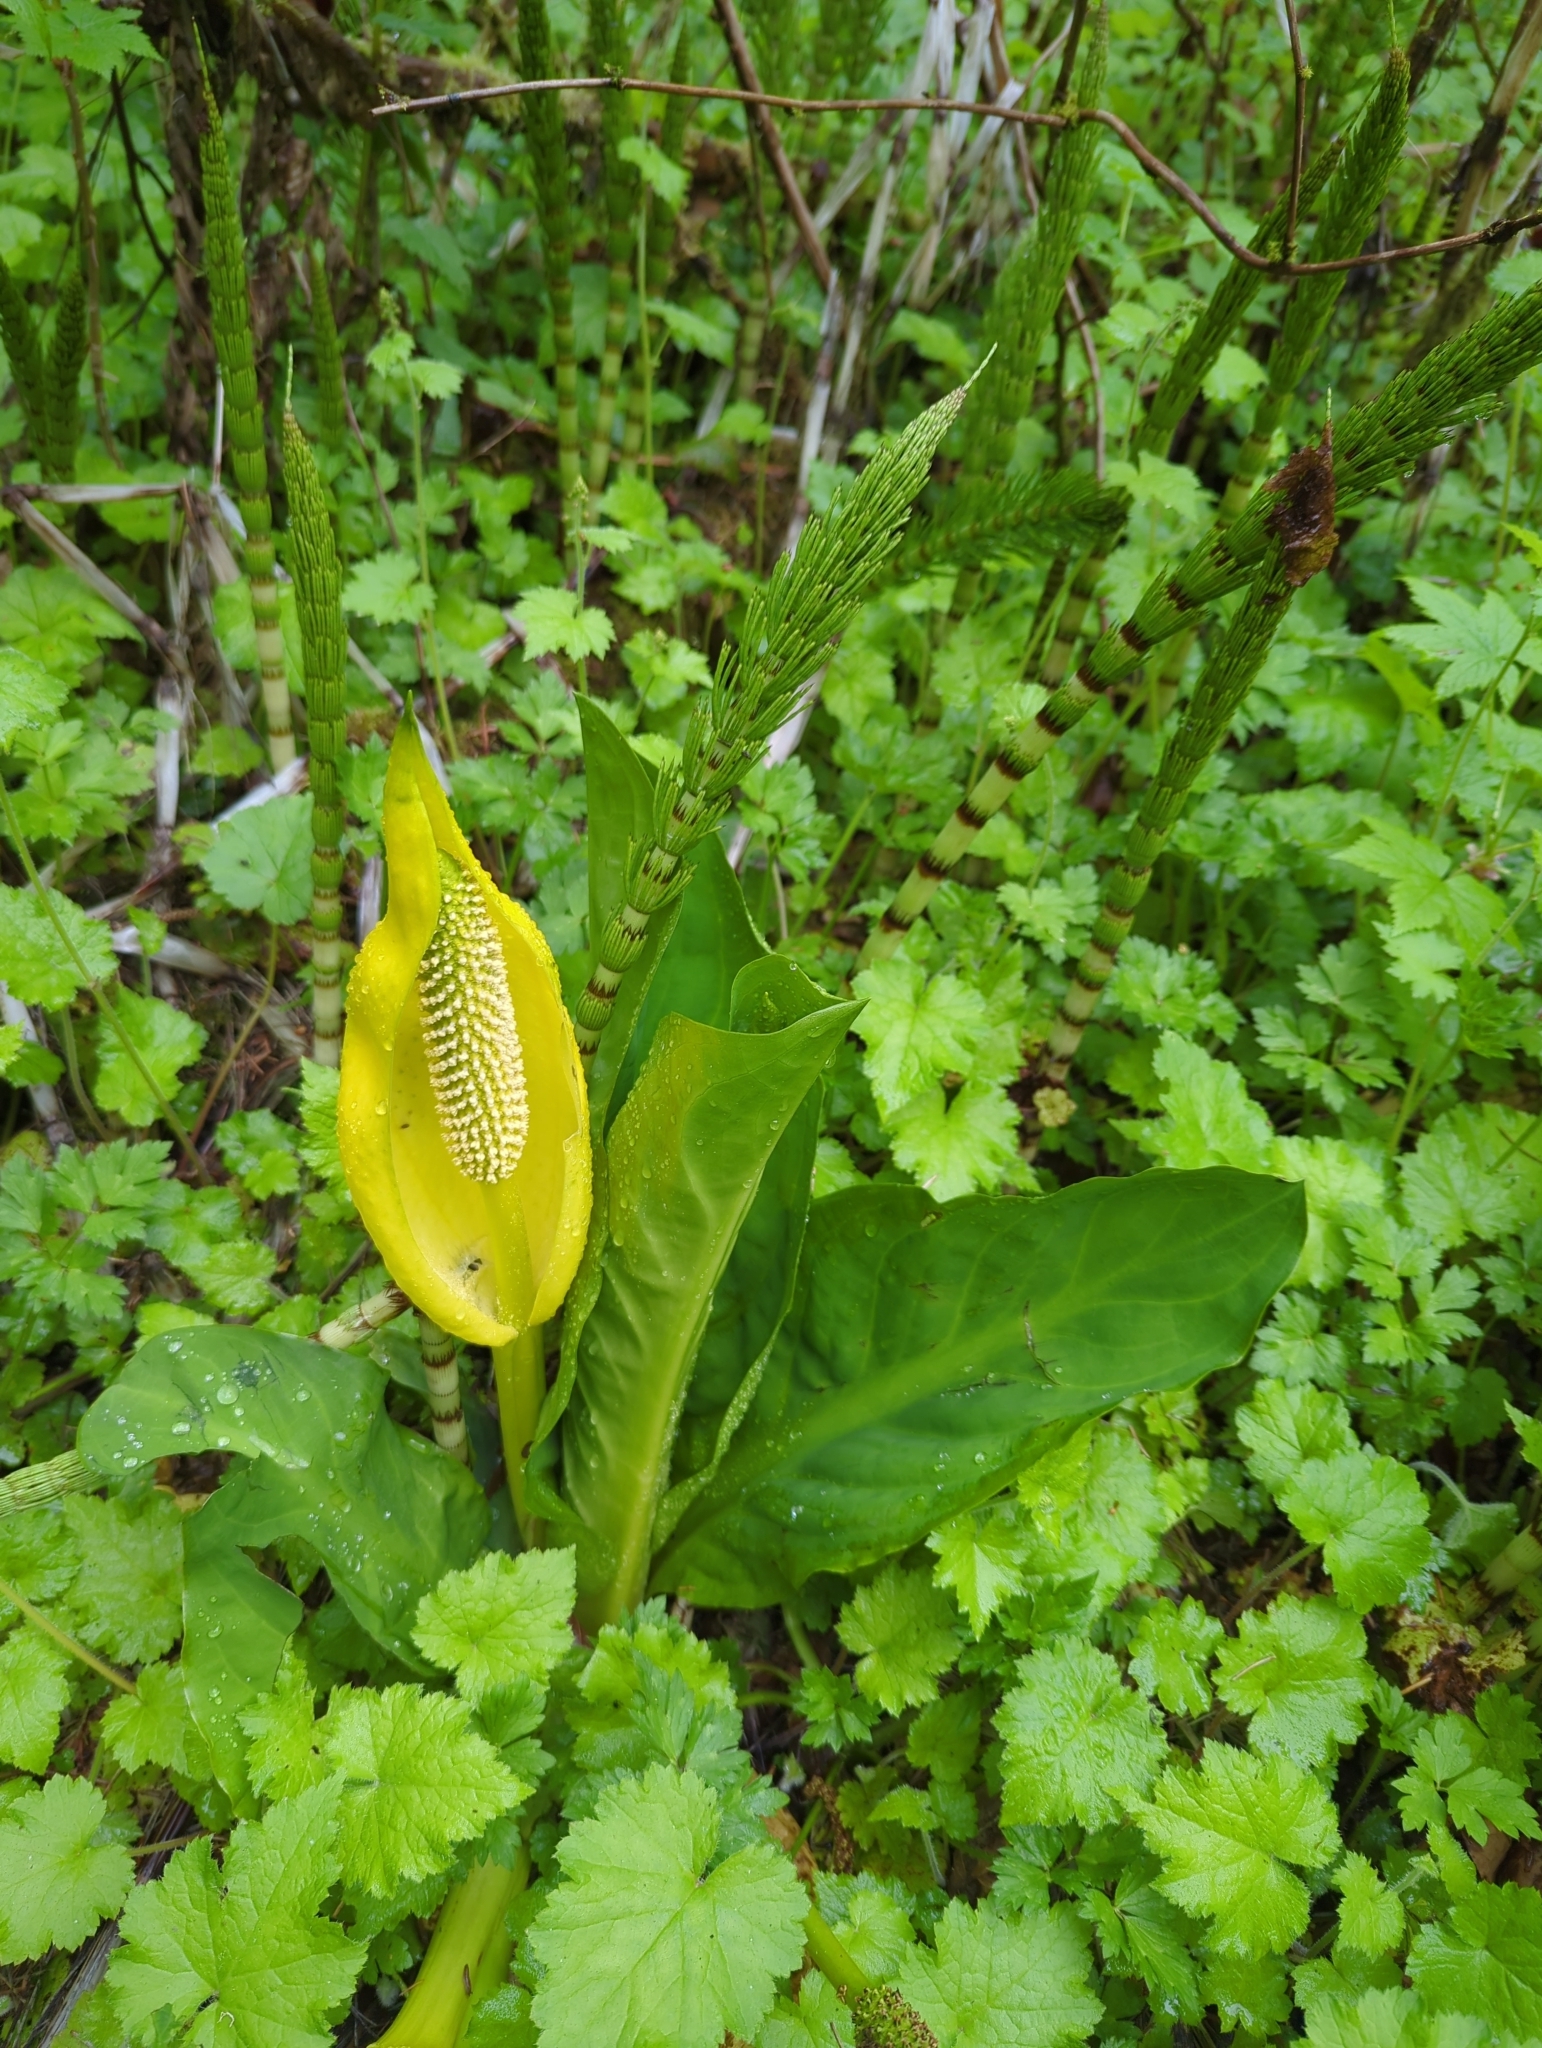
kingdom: Plantae
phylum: Tracheophyta
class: Liliopsida
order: Alismatales
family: Araceae
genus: Lysichiton
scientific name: Lysichiton americanus
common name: American skunk cabbage
